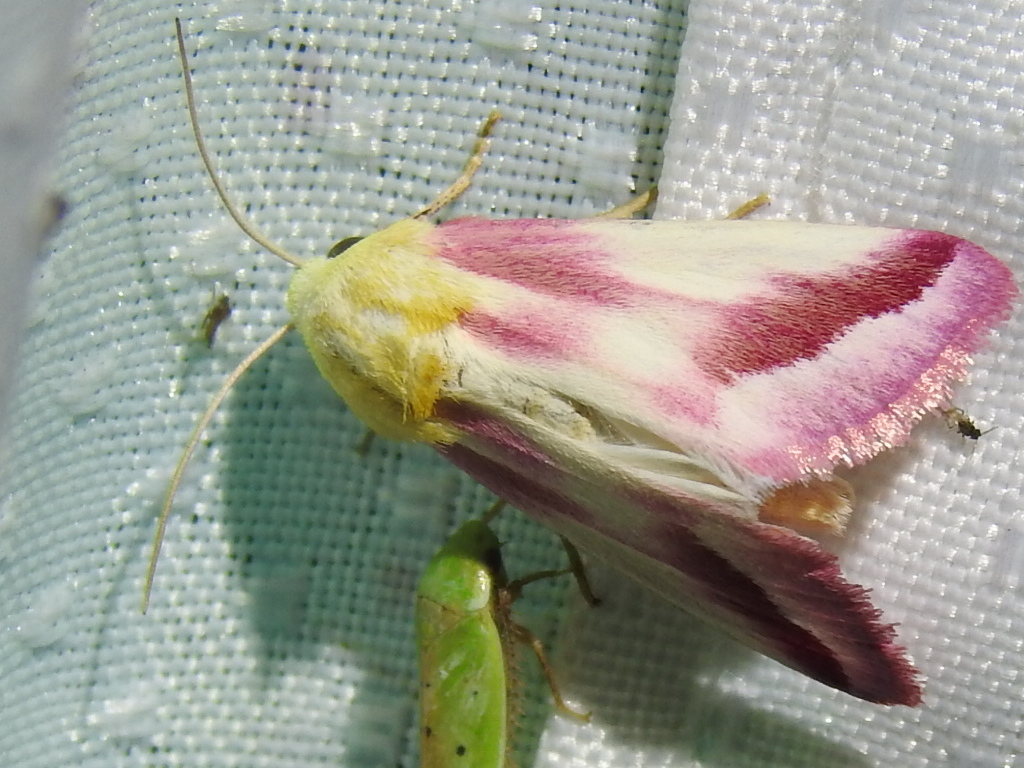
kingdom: Animalia
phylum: Arthropoda
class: Insecta
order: Lepidoptera
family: Noctuidae
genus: Schinia
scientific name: Schinia gaurae
